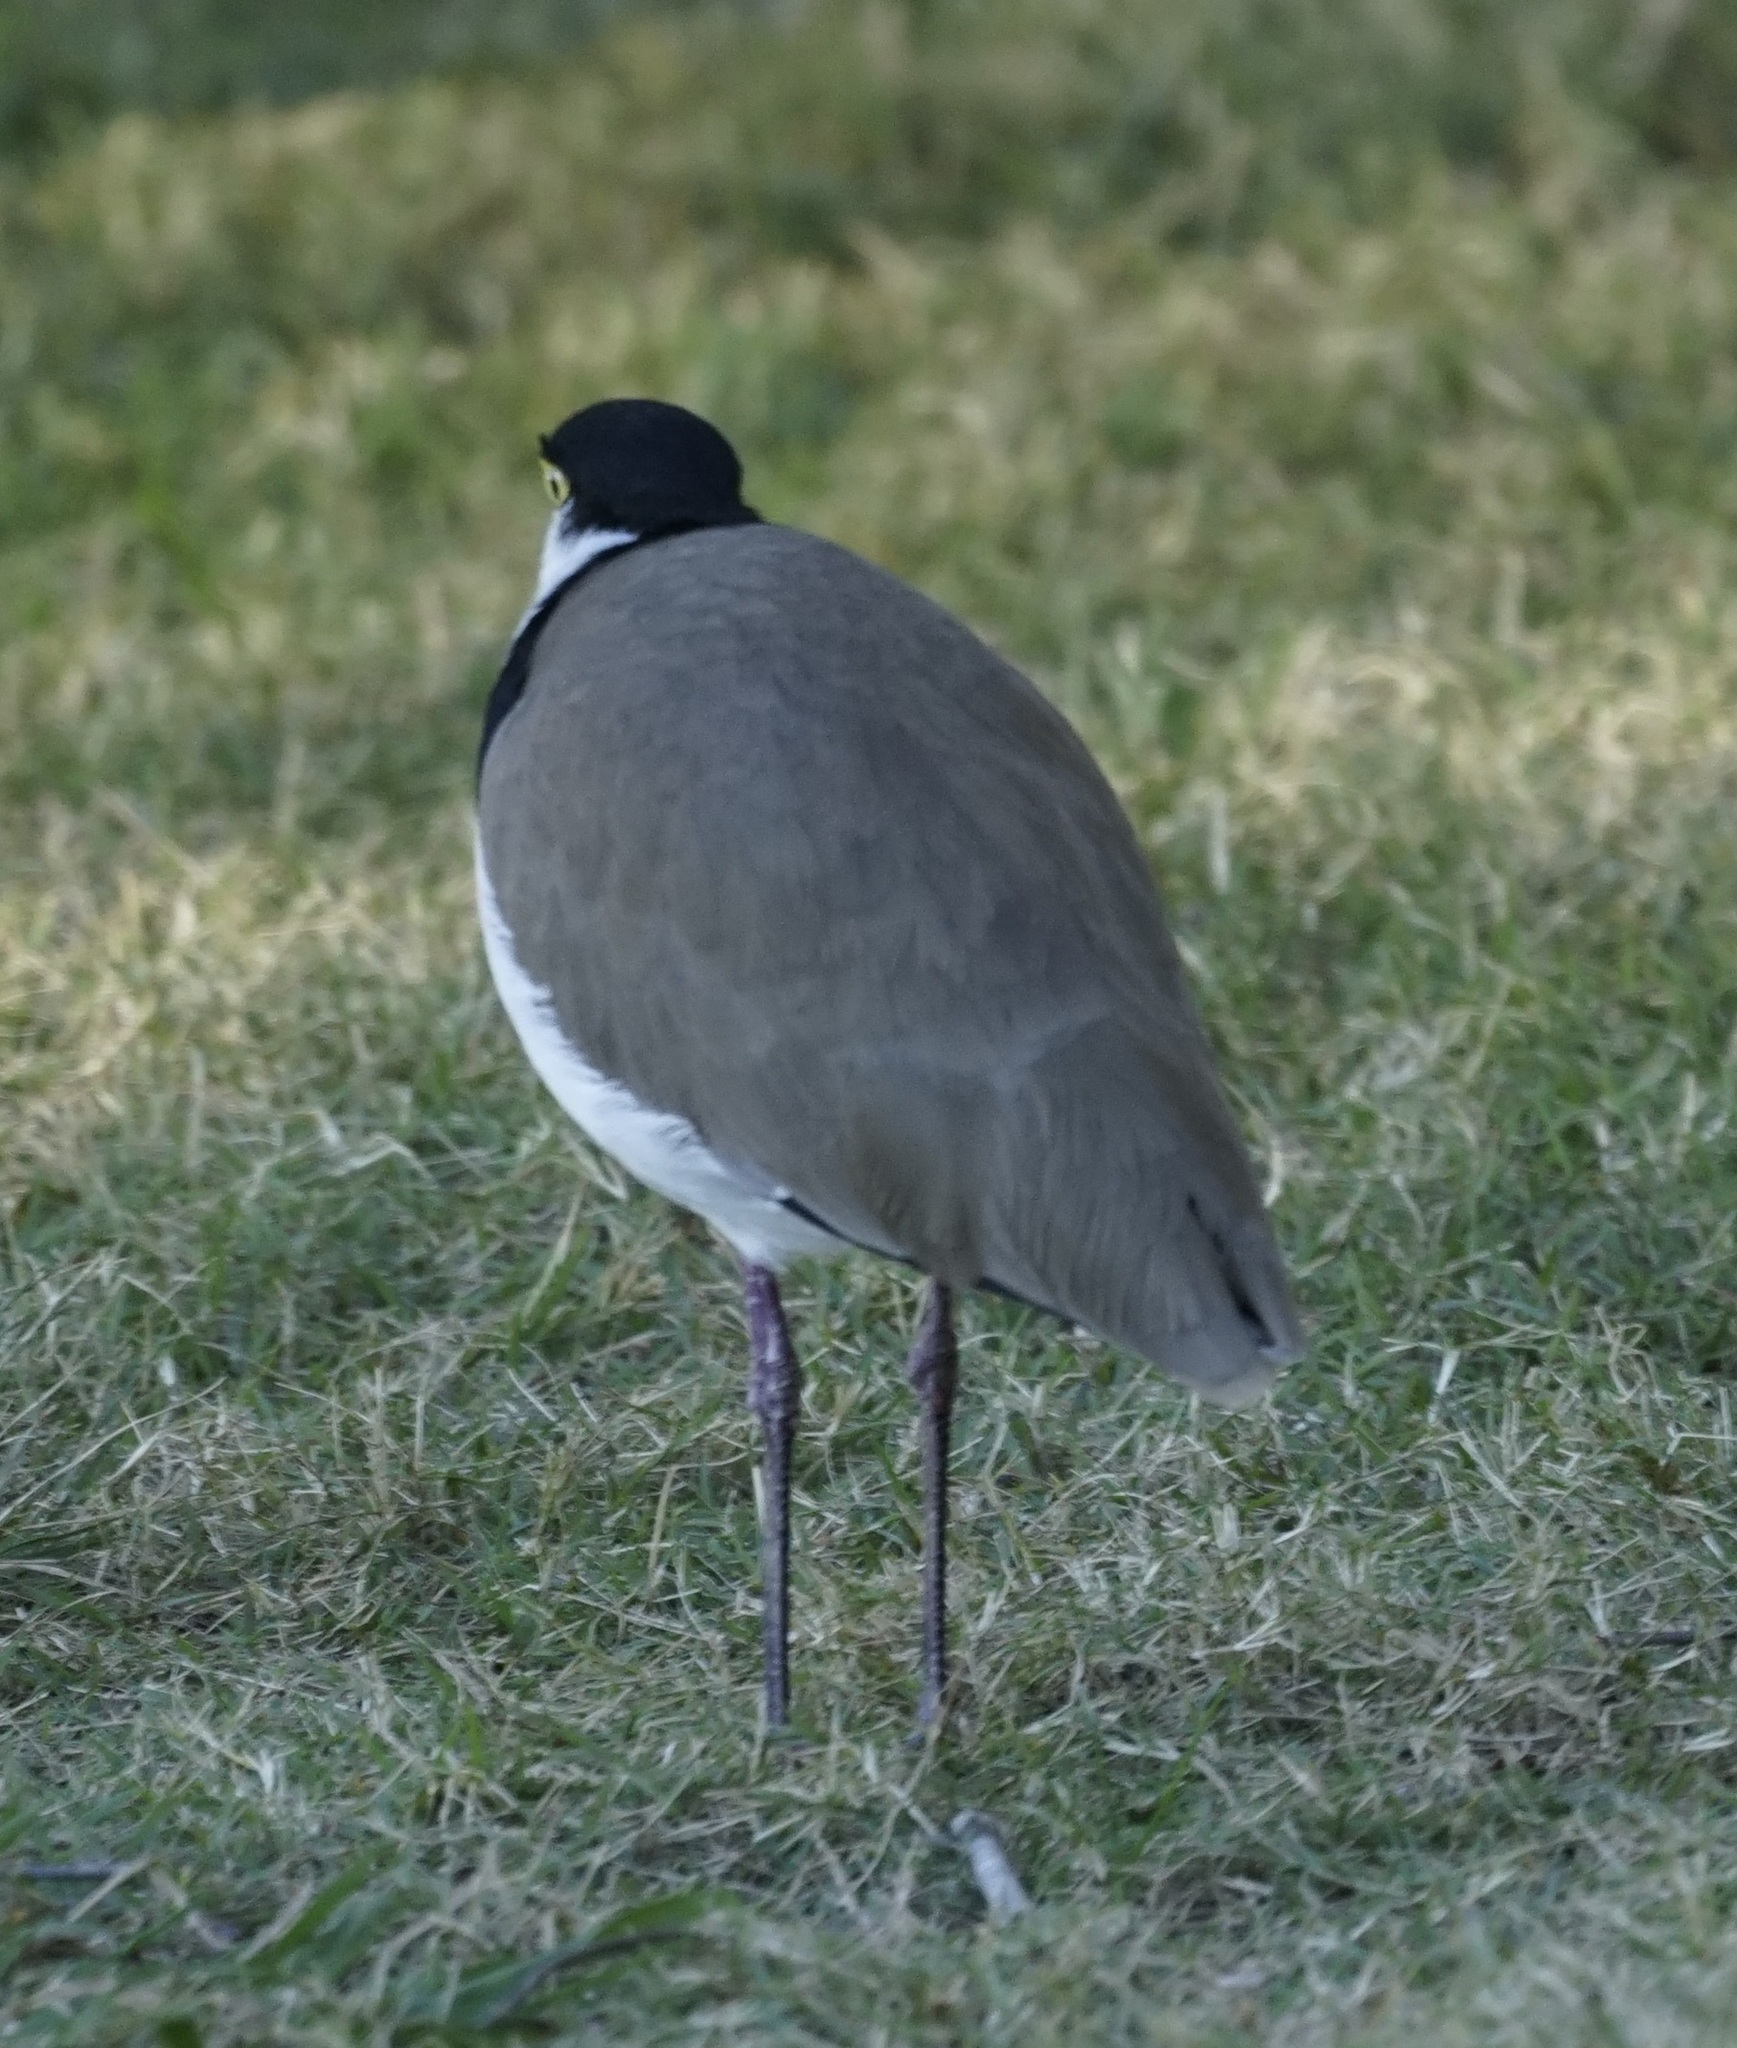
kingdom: Animalia
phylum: Chordata
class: Aves
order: Charadriiformes
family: Charadriidae
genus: Vanellus
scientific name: Vanellus miles
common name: Masked lapwing
